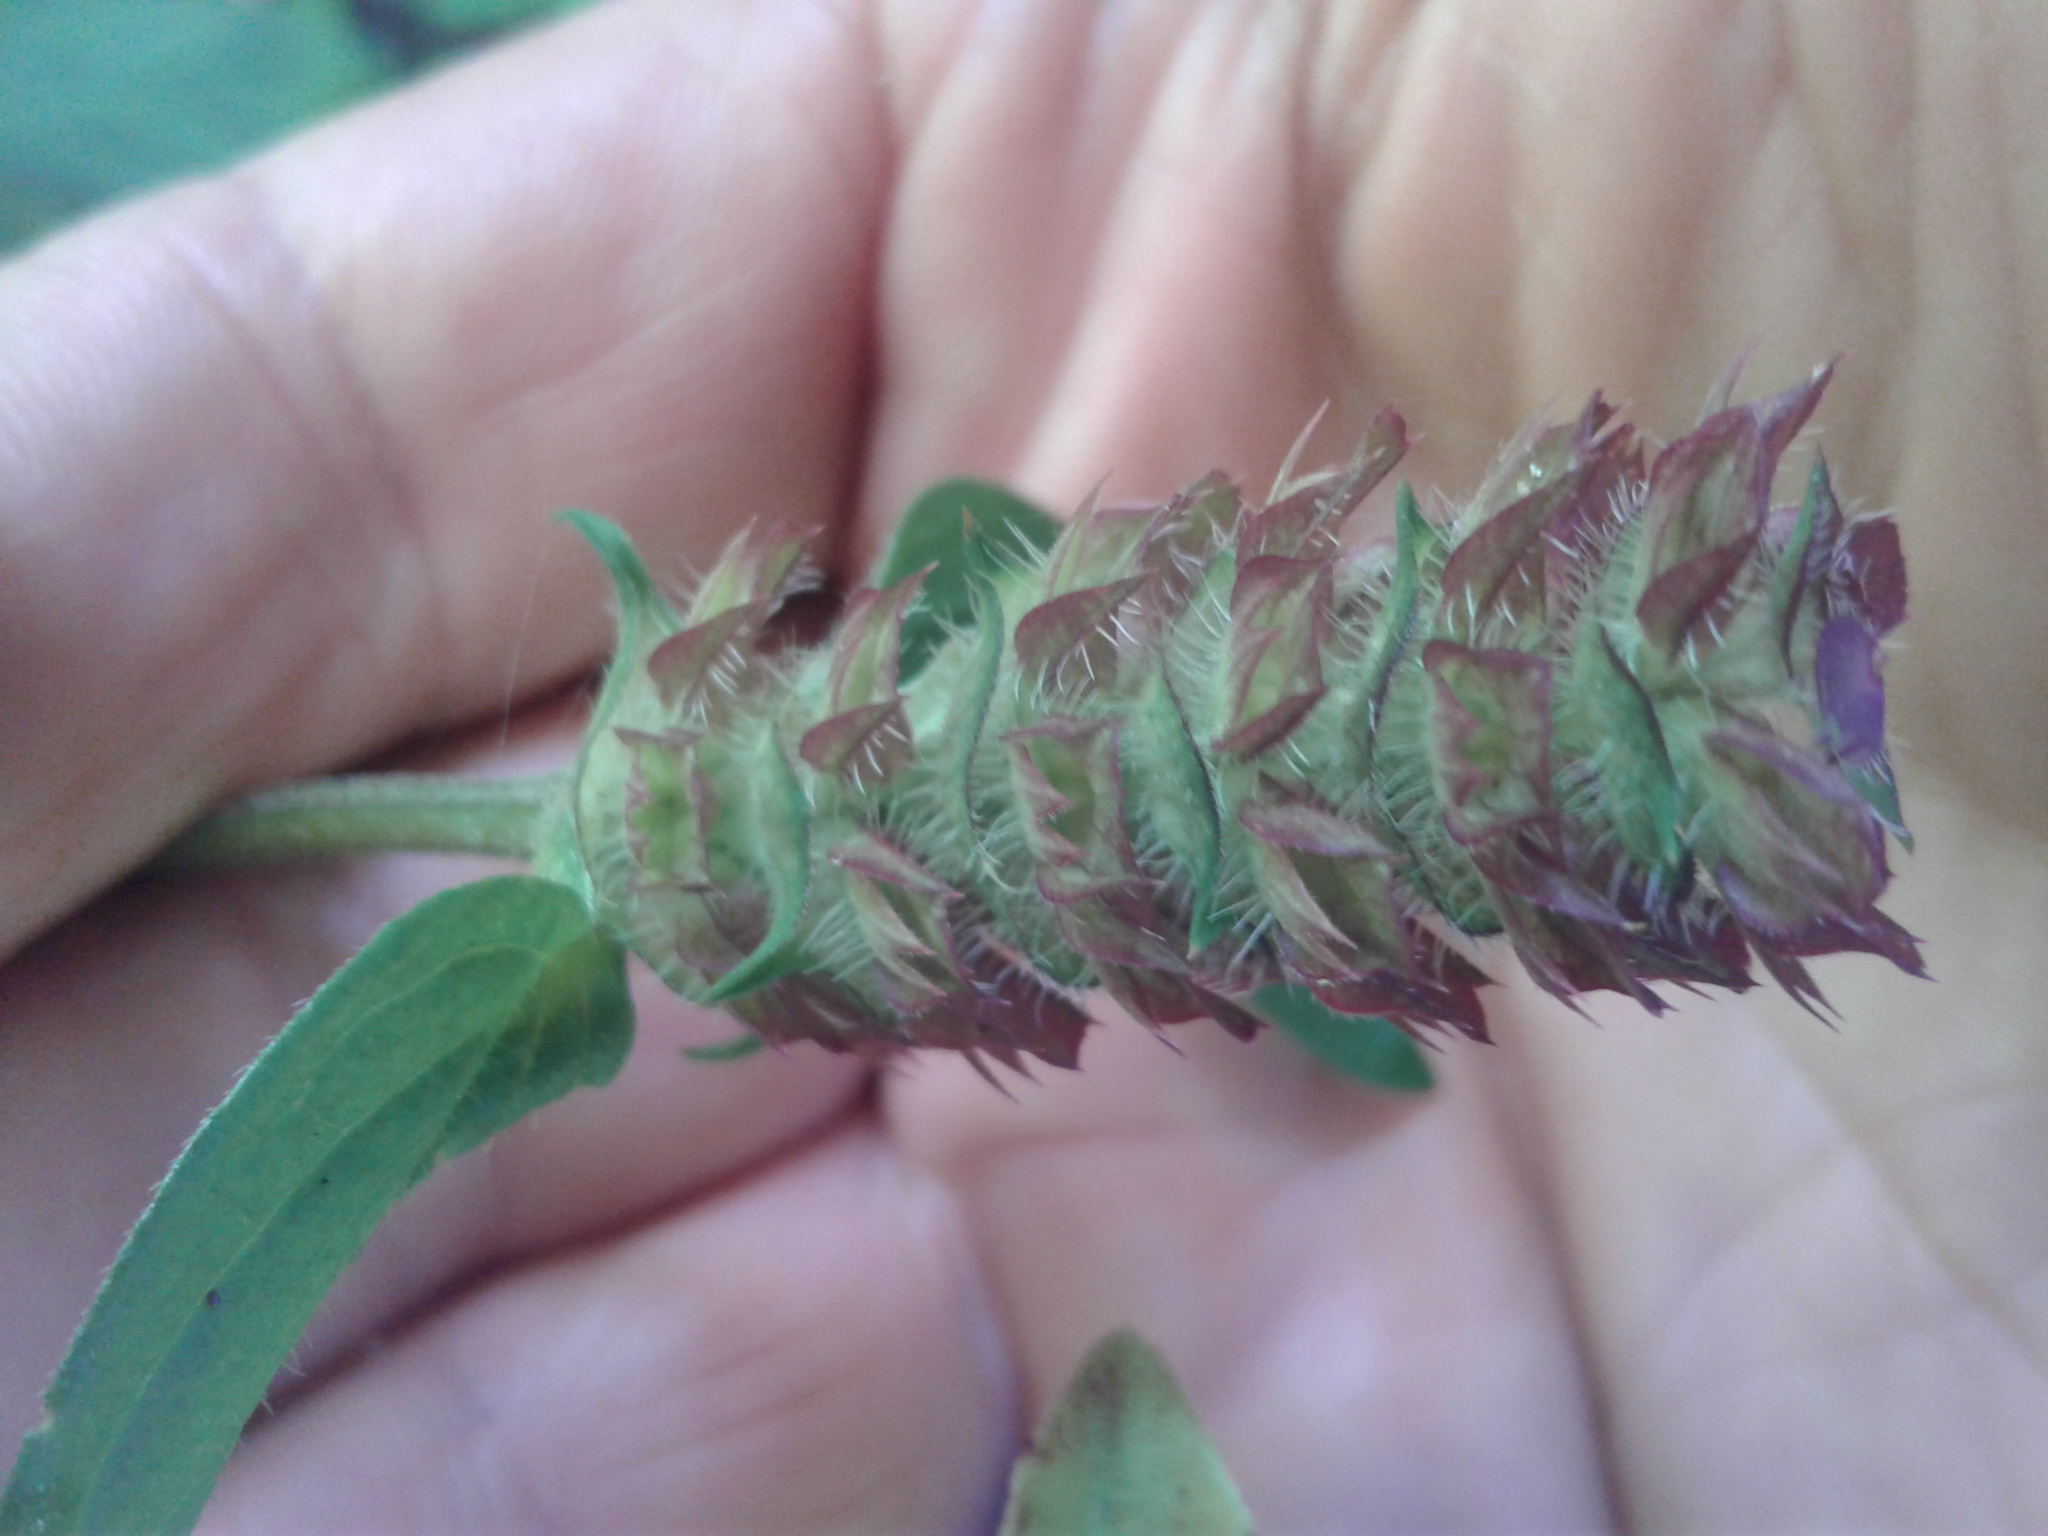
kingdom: Plantae
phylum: Tracheophyta
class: Magnoliopsida
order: Lamiales
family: Lamiaceae
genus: Prunella
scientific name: Prunella vulgaris
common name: Heal-all
